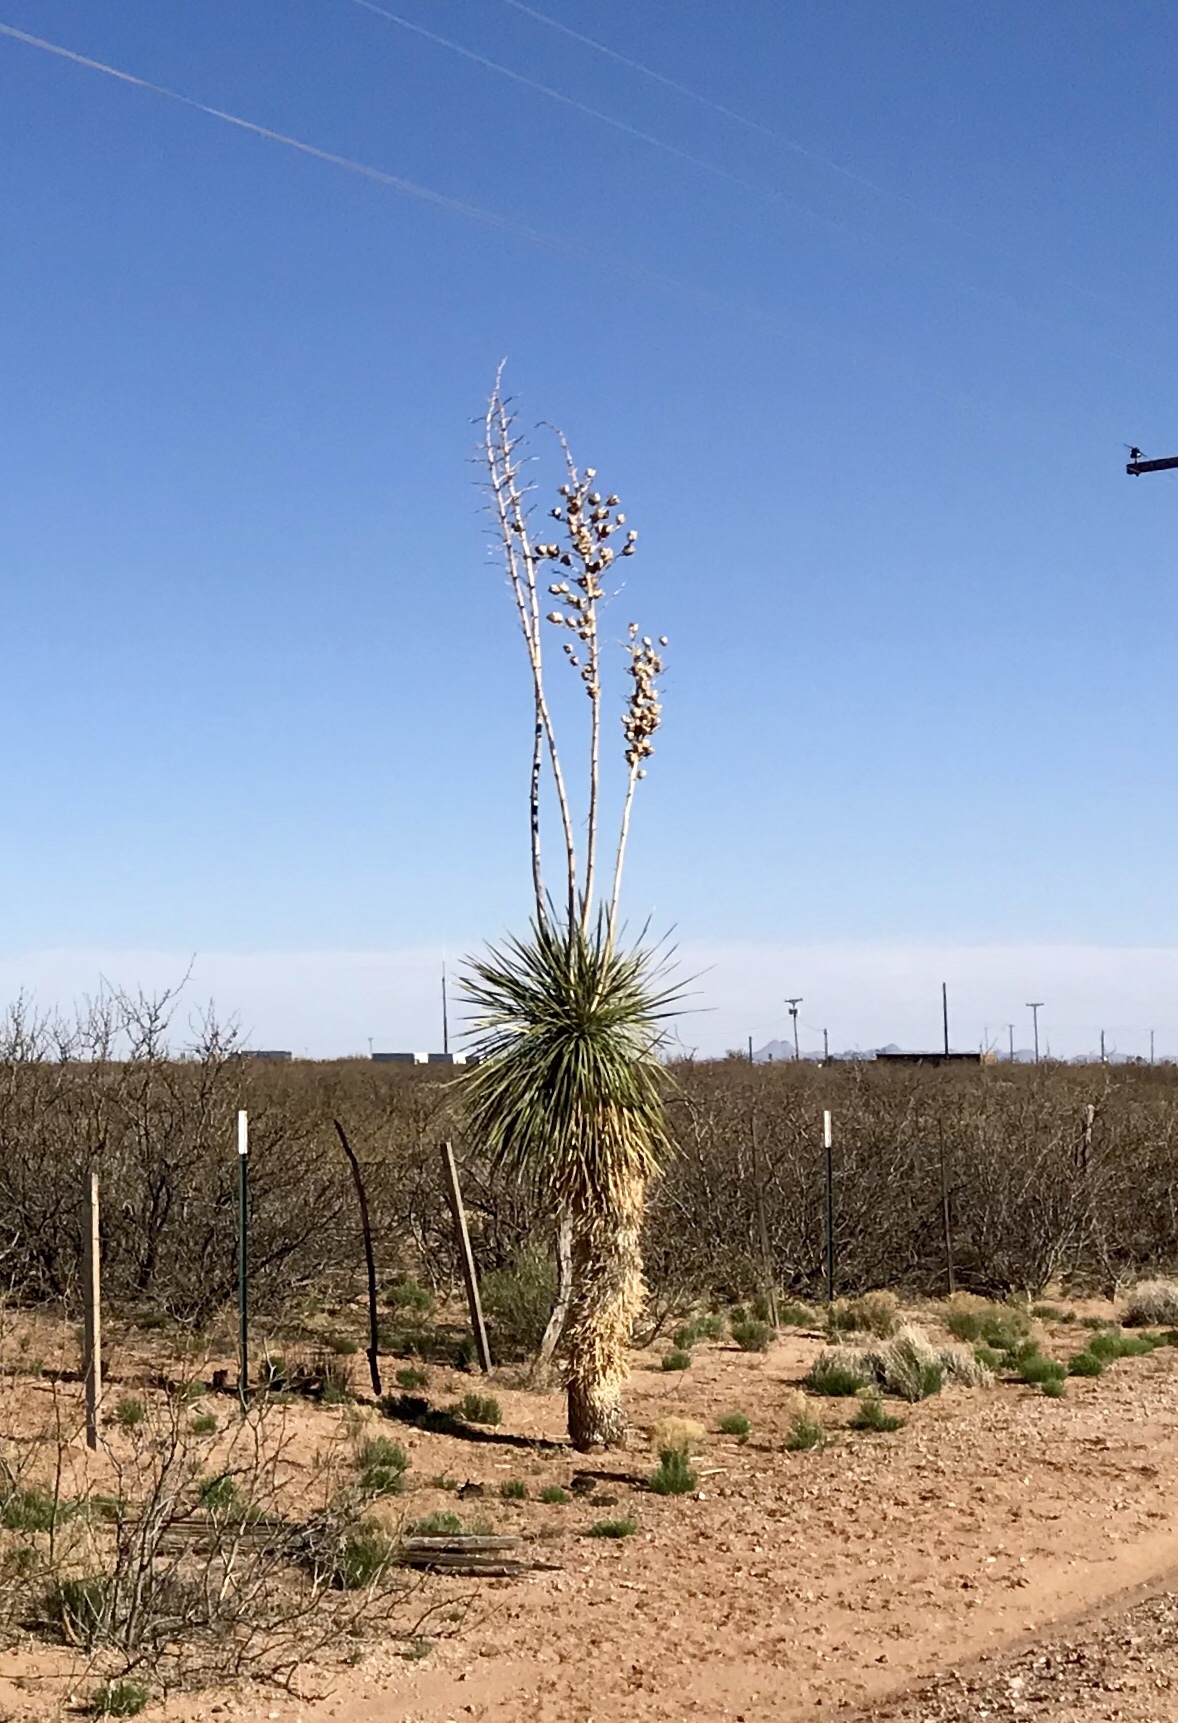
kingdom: Plantae
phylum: Tracheophyta
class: Liliopsida
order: Asparagales
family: Asparagaceae
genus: Yucca
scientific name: Yucca elata
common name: Palmella
